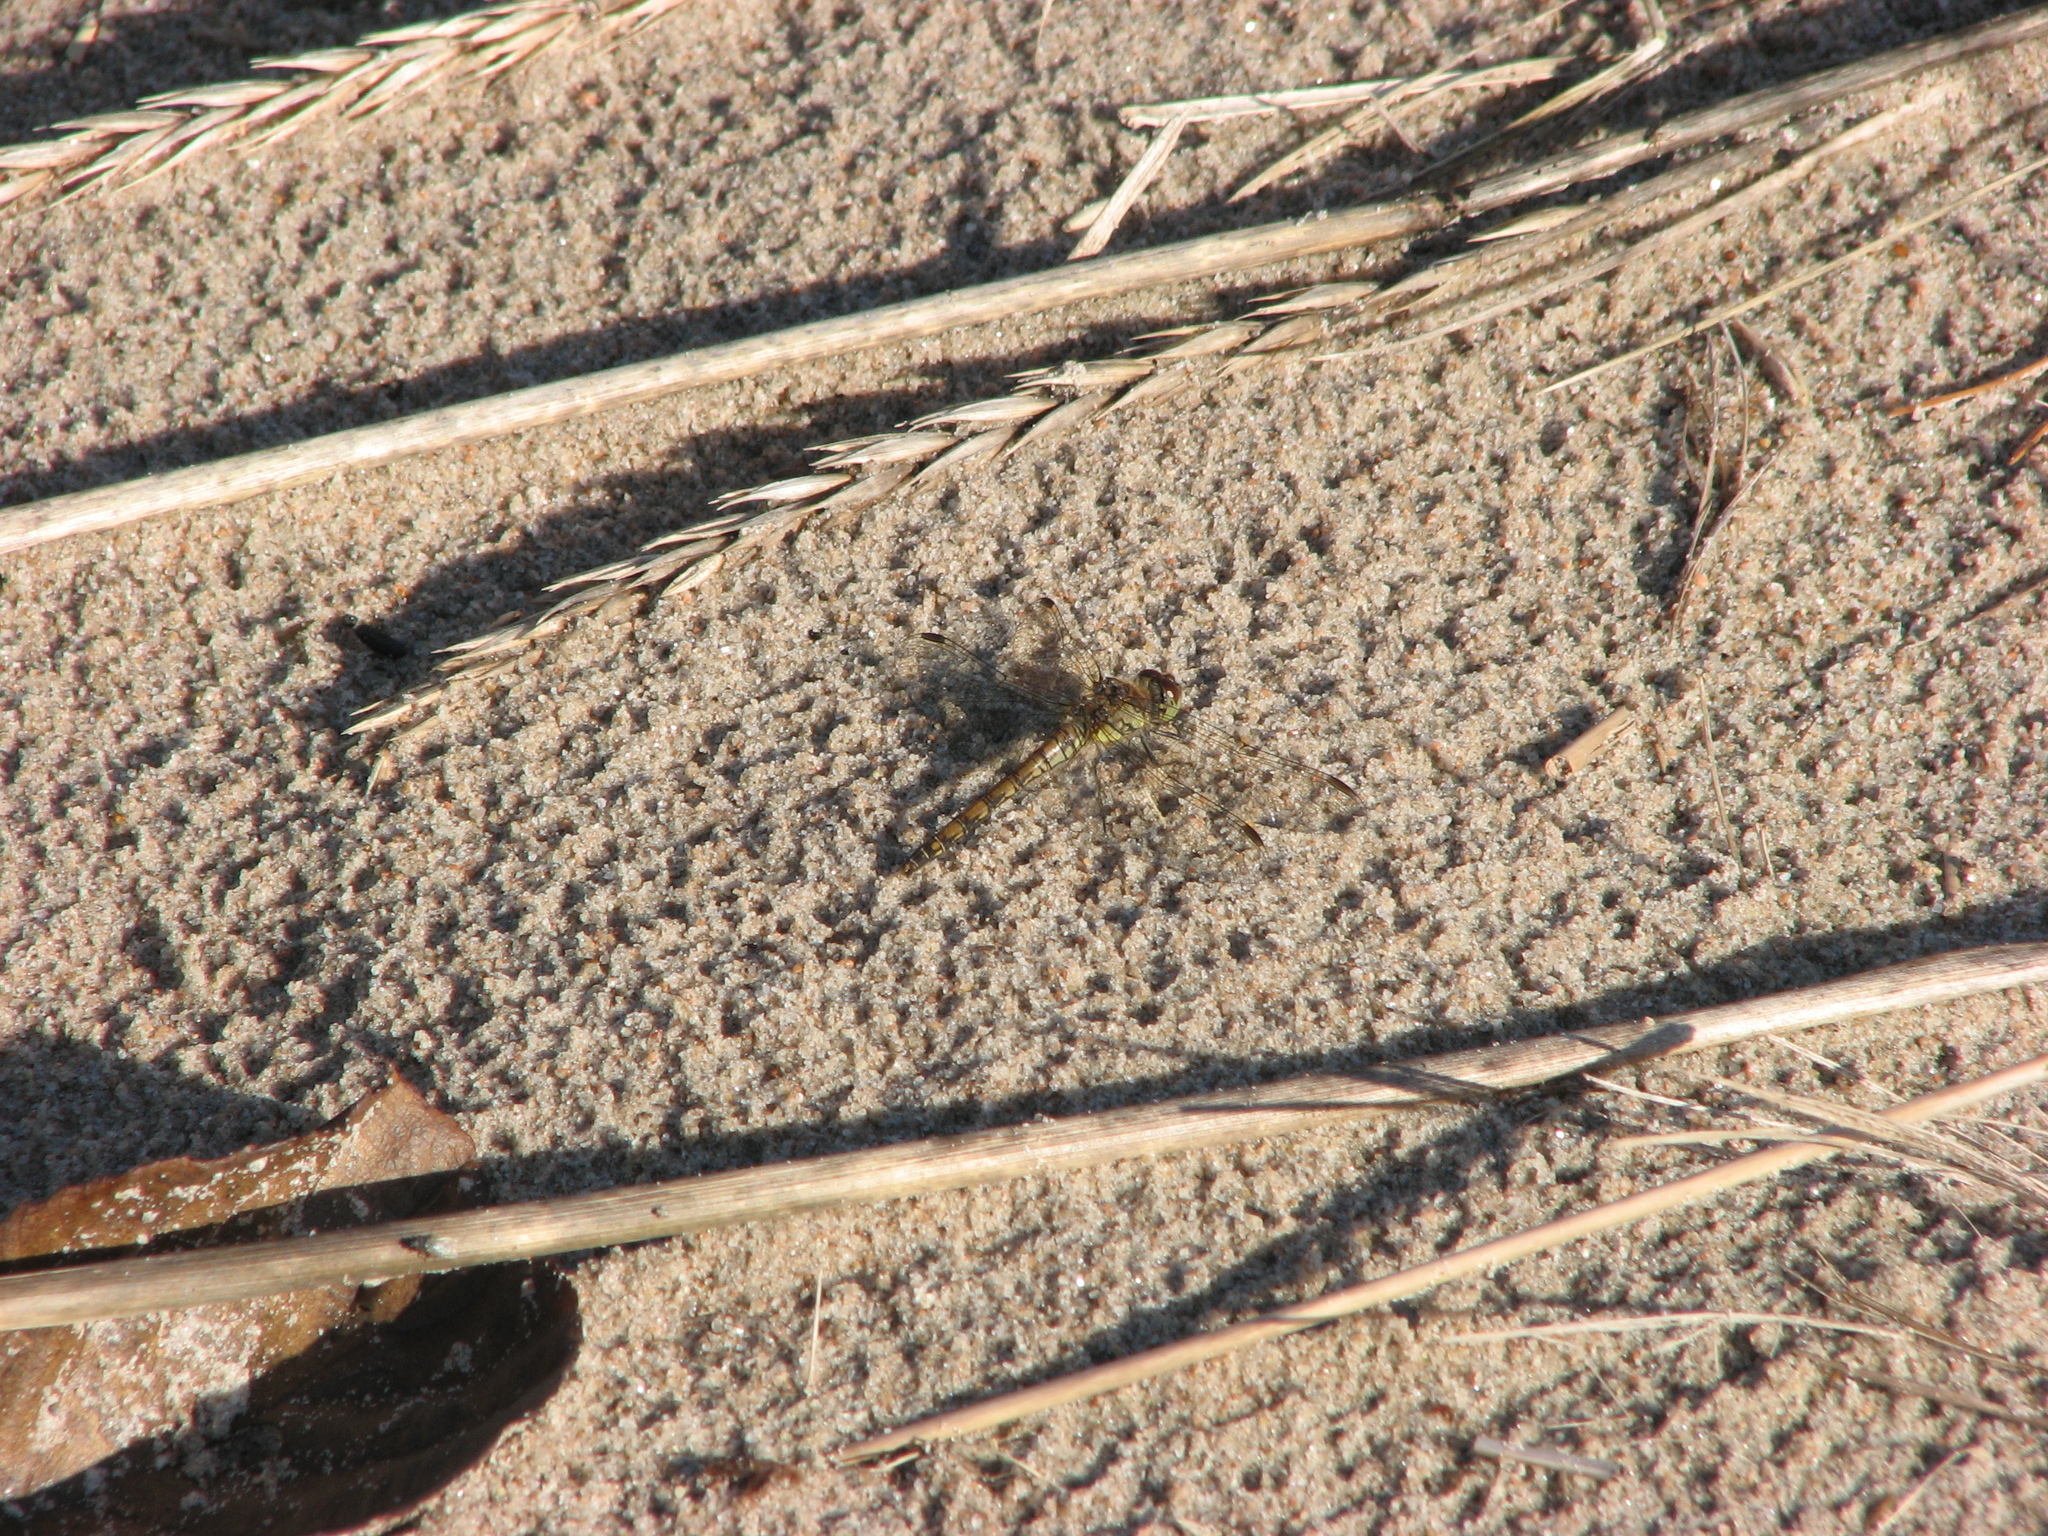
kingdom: Animalia
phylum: Arthropoda
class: Insecta
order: Odonata
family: Libellulidae
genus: Sympetrum
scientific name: Sympetrum striolatum
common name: Common darter
